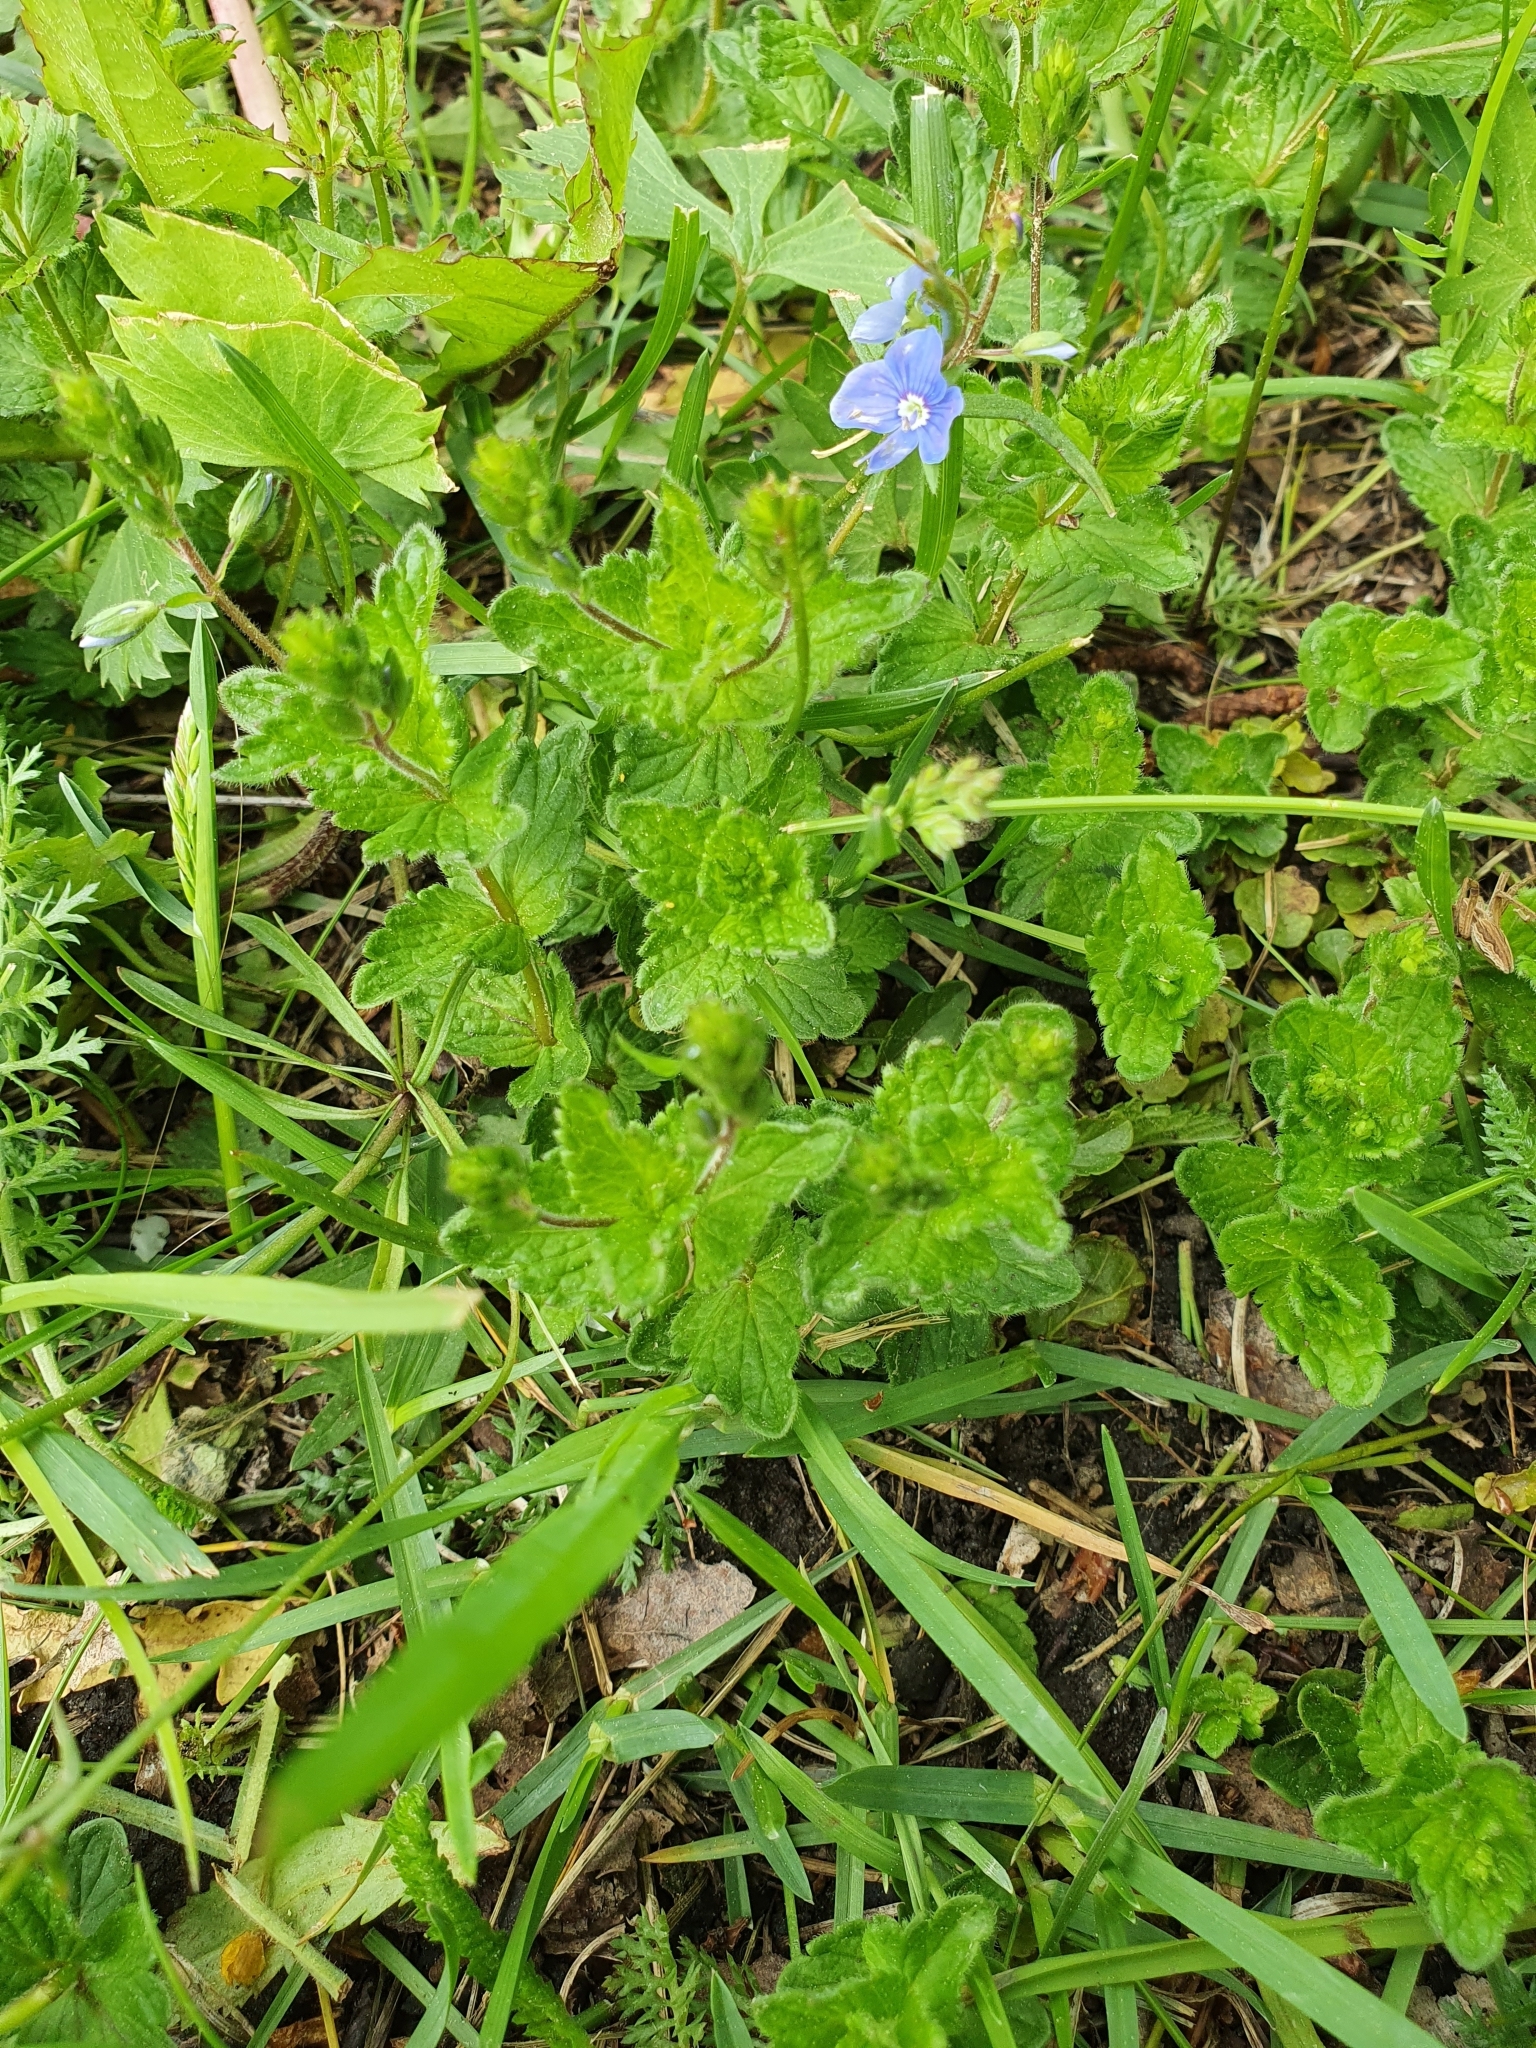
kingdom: Plantae
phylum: Tracheophyta
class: Magnoliopsida
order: Lamiales
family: Plantaginaceae
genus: Veronica
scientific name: Veronica chamaedrys
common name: Germander speedwell
